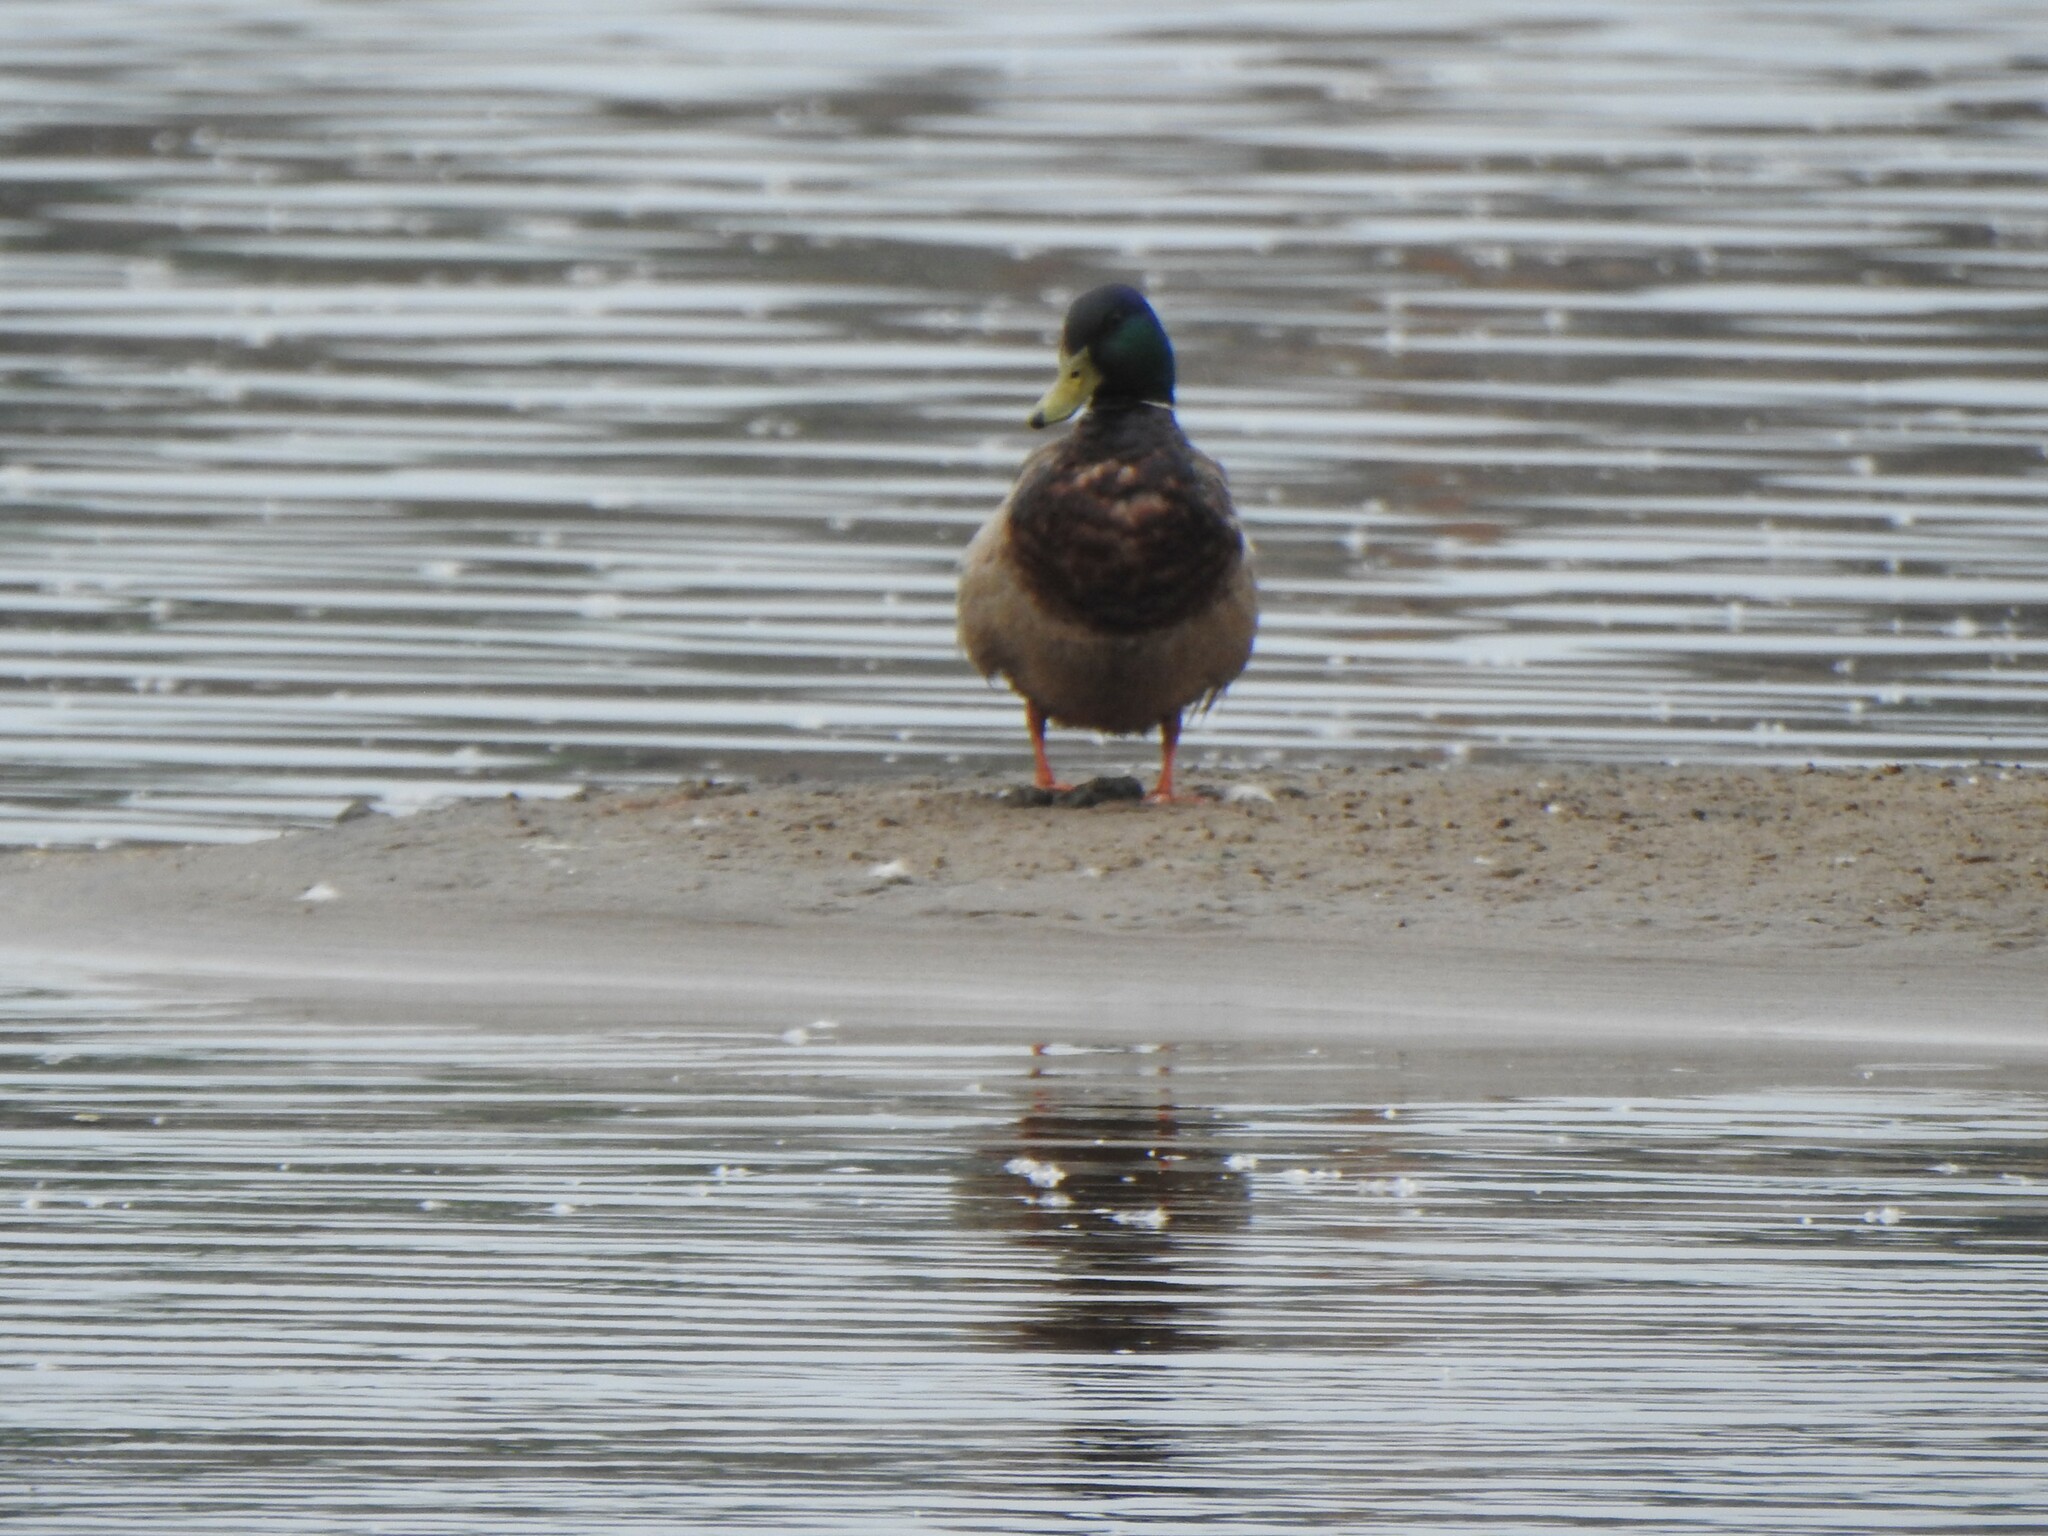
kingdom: Animalia
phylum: Chordata
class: Aves
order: Anseriformes
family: Anatidae
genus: Anas
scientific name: Anas platyrhynchos
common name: Mallard
